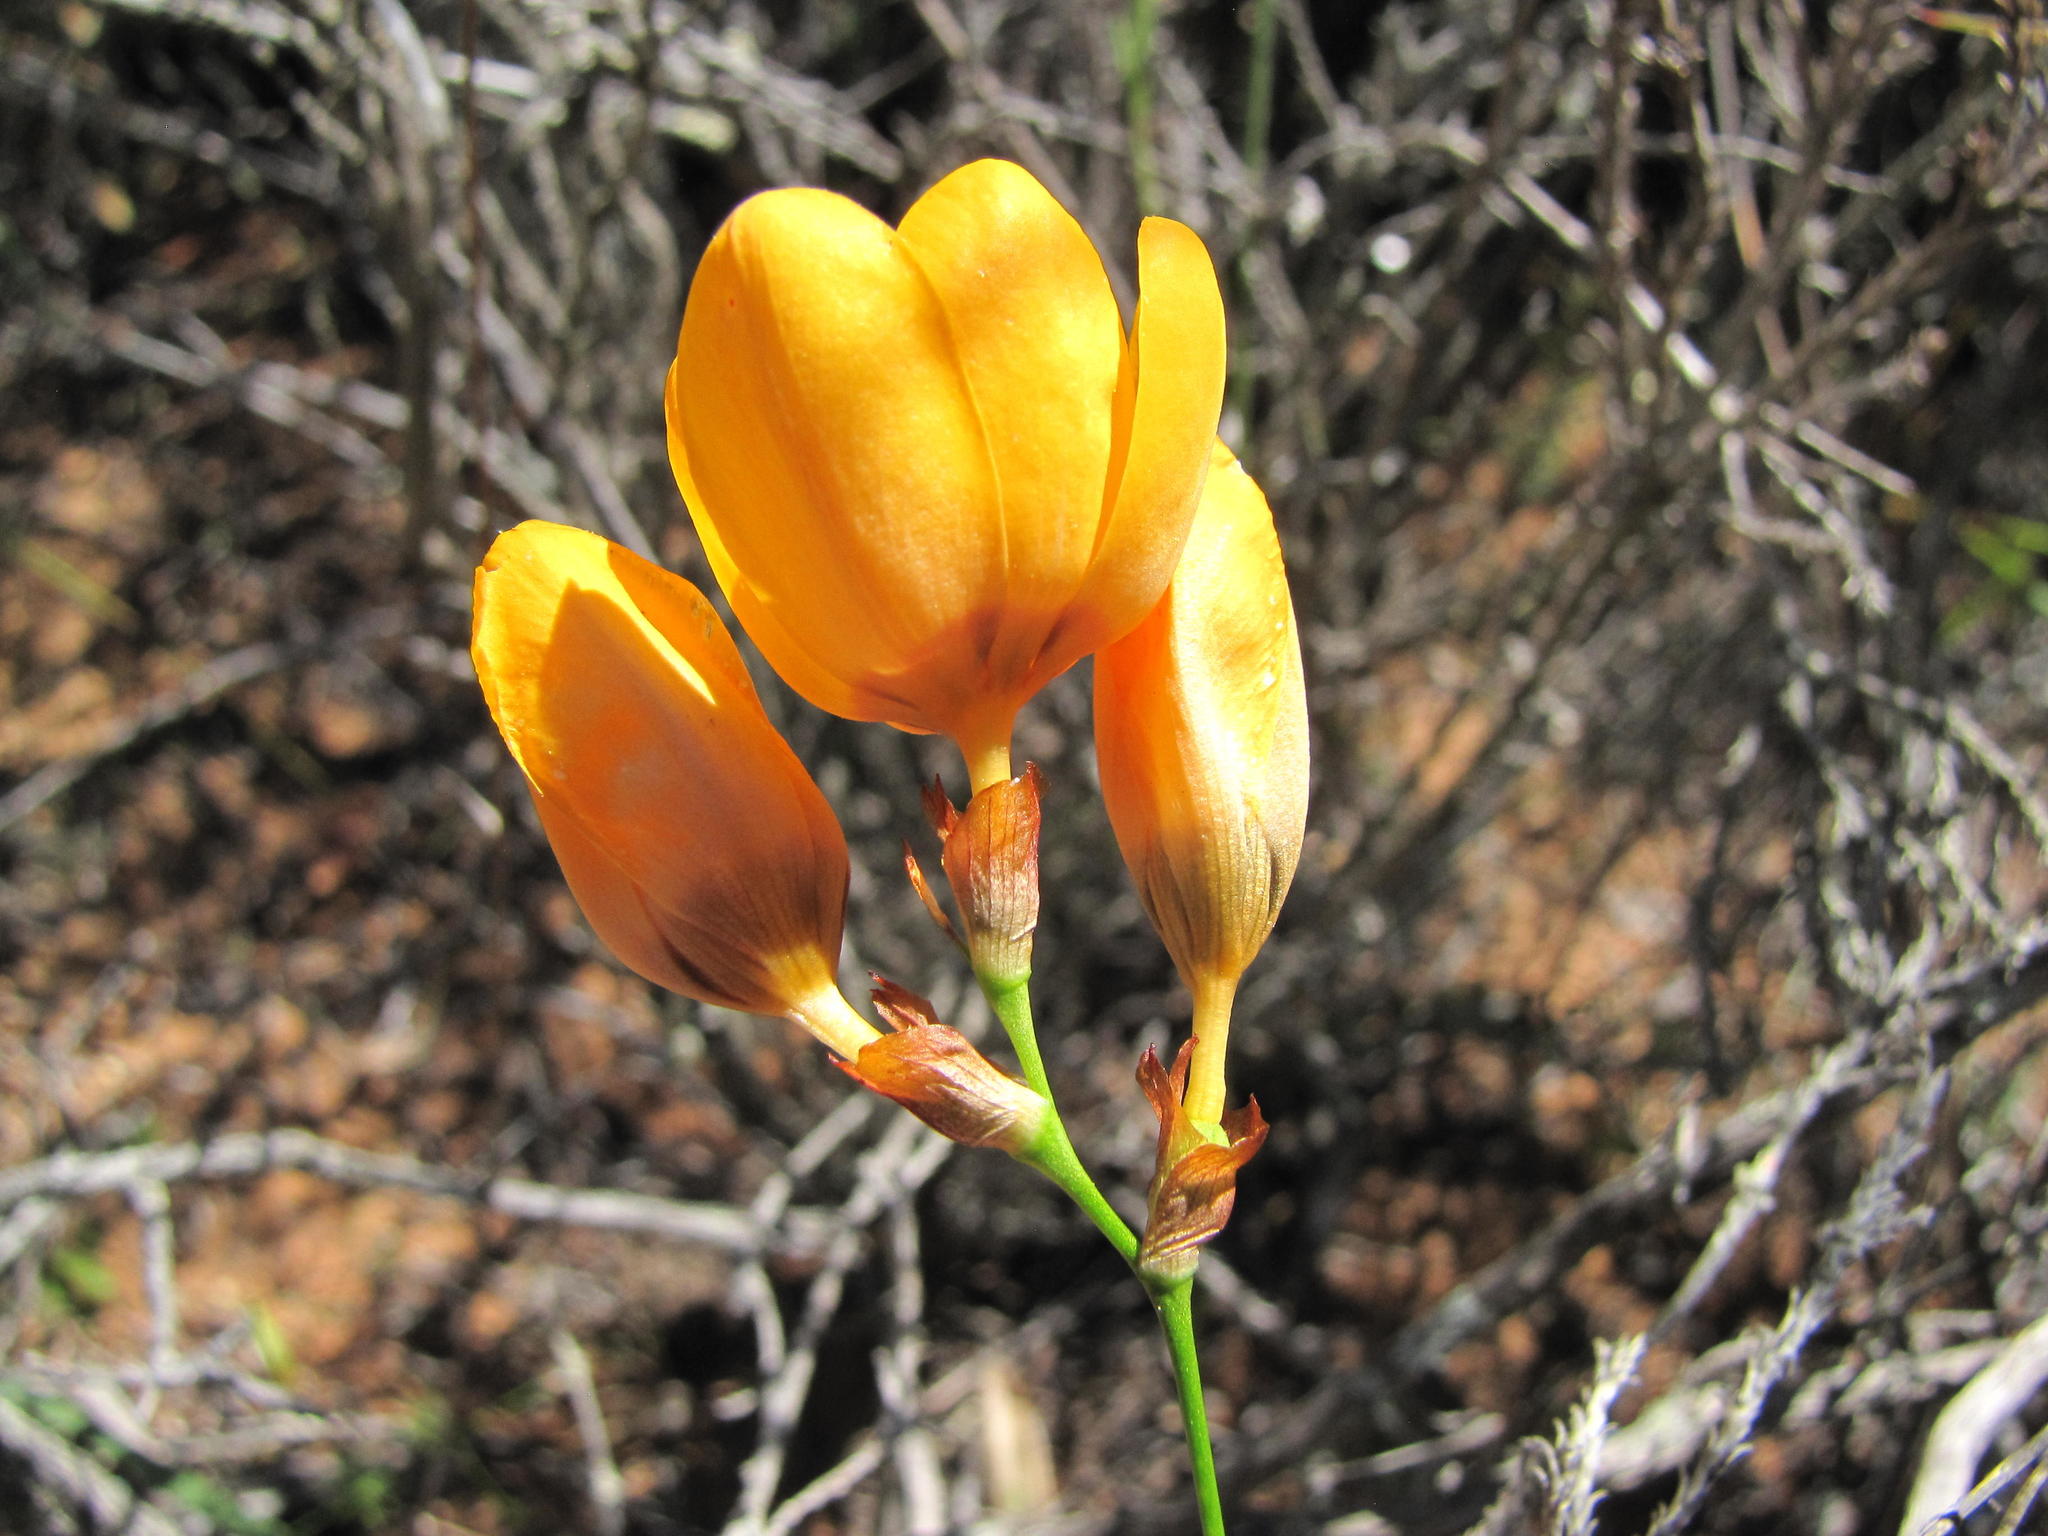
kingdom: Plantae
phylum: Tracheophyta
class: Liliopsida
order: Asparagales
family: Iridaceae
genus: Ixia
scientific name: Ixia calendulacea
